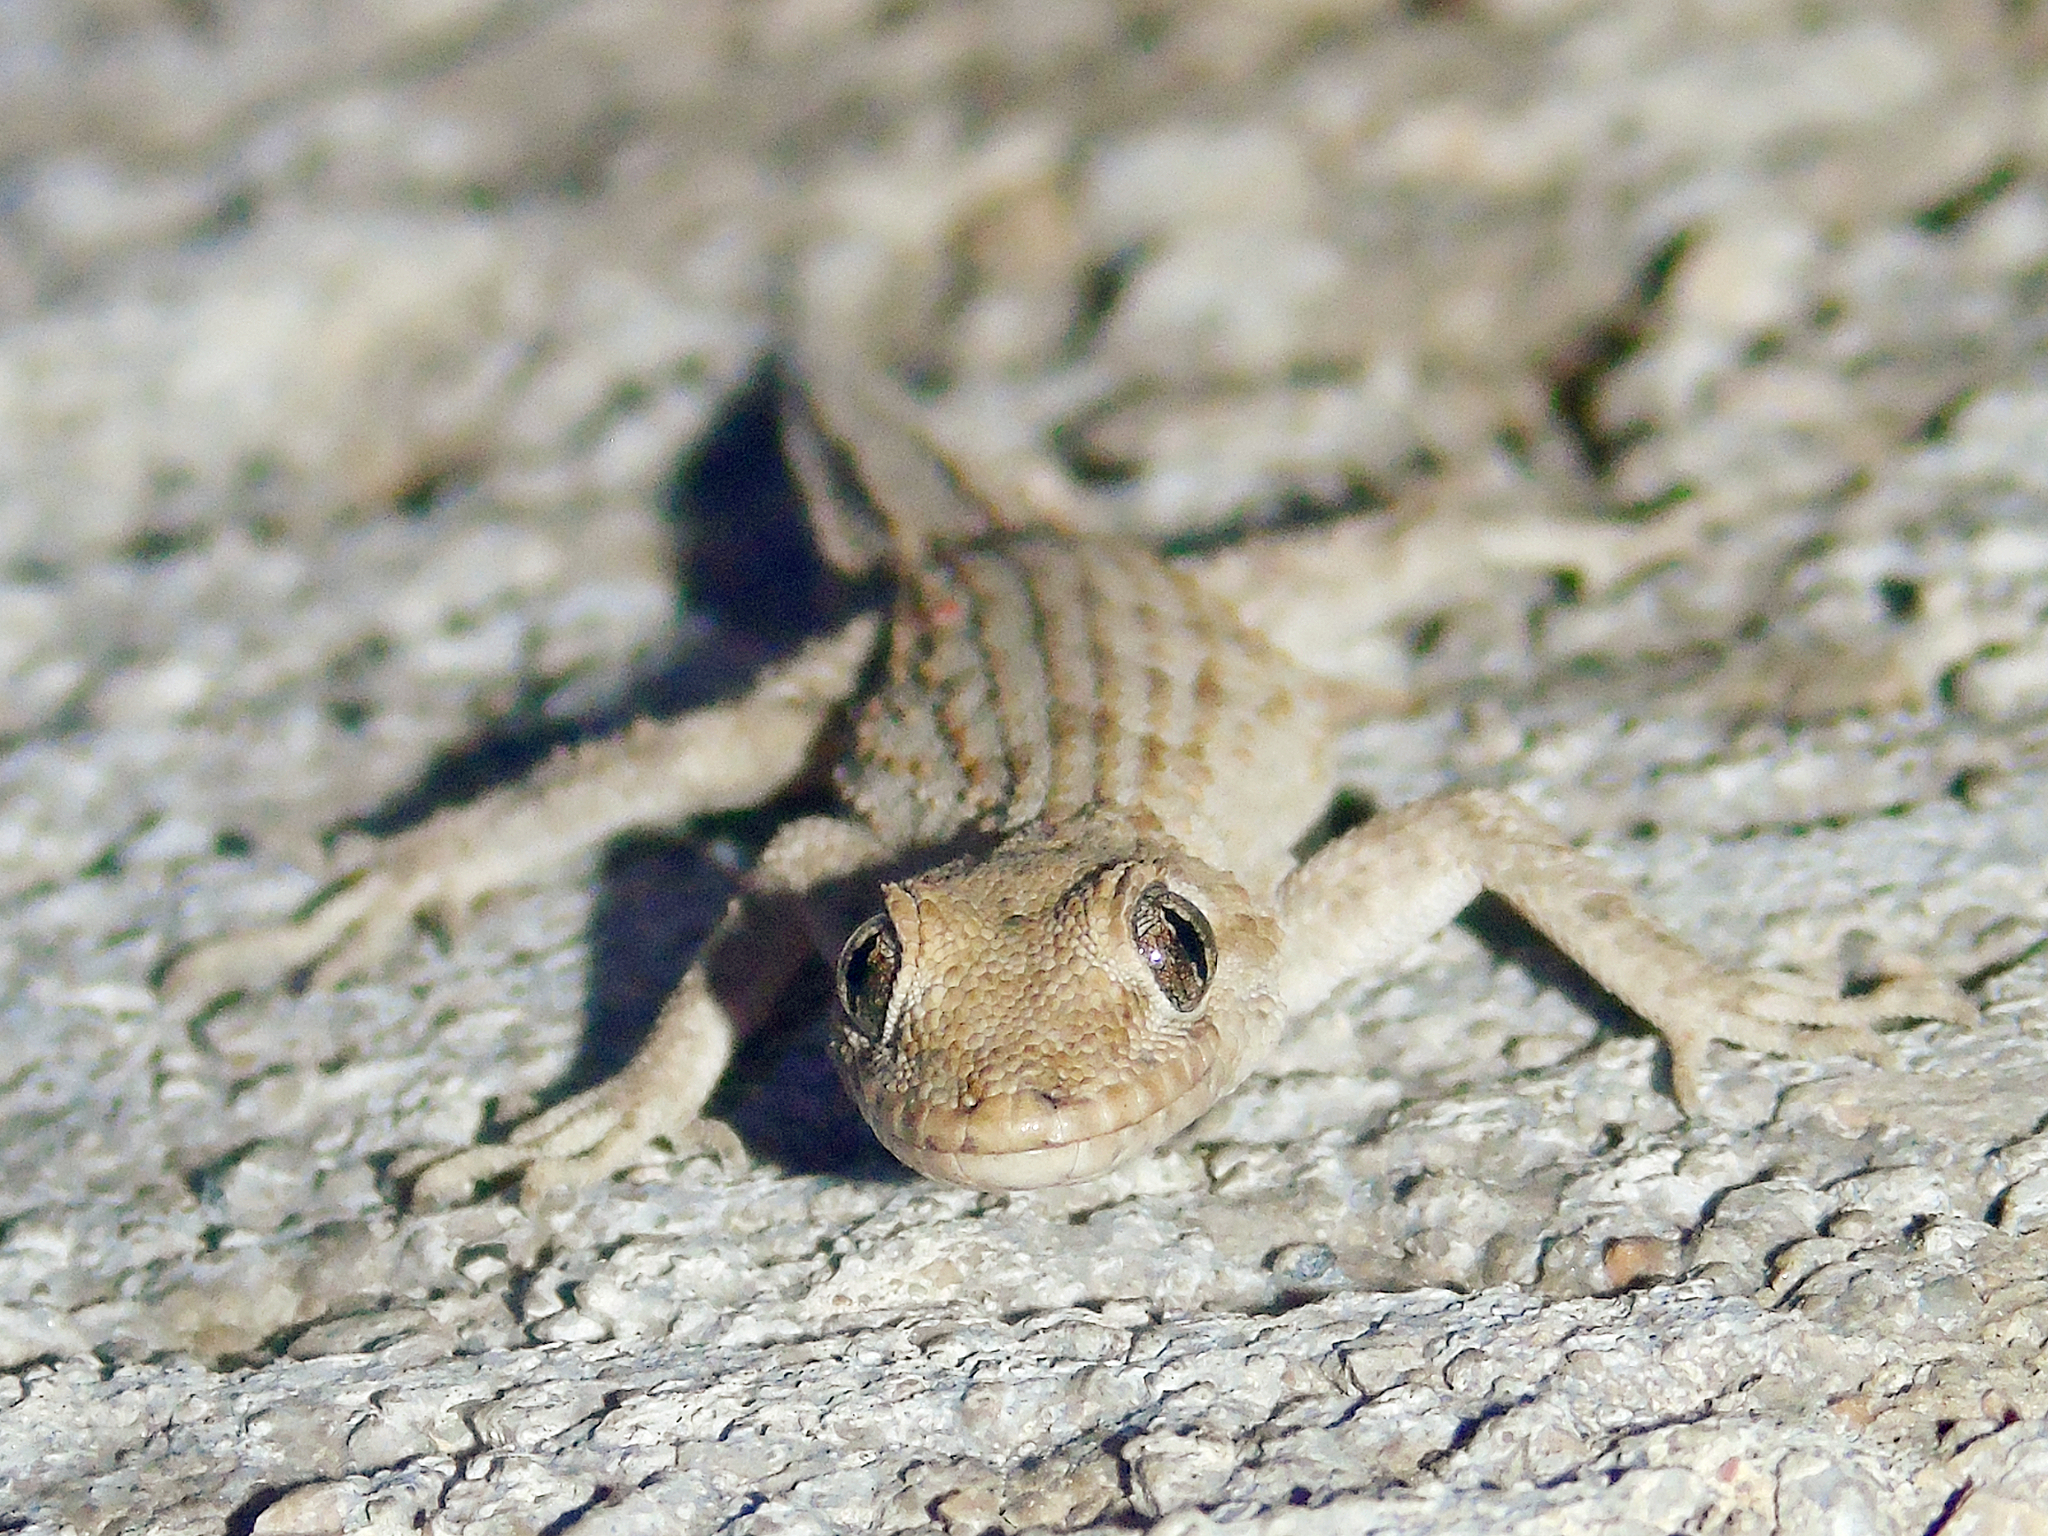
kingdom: Animalia
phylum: Chordata
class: Squamata
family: Gekkonidae
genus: Mediodactylus
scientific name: Mediodactylus kotschyi
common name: Kotschy's gecko
